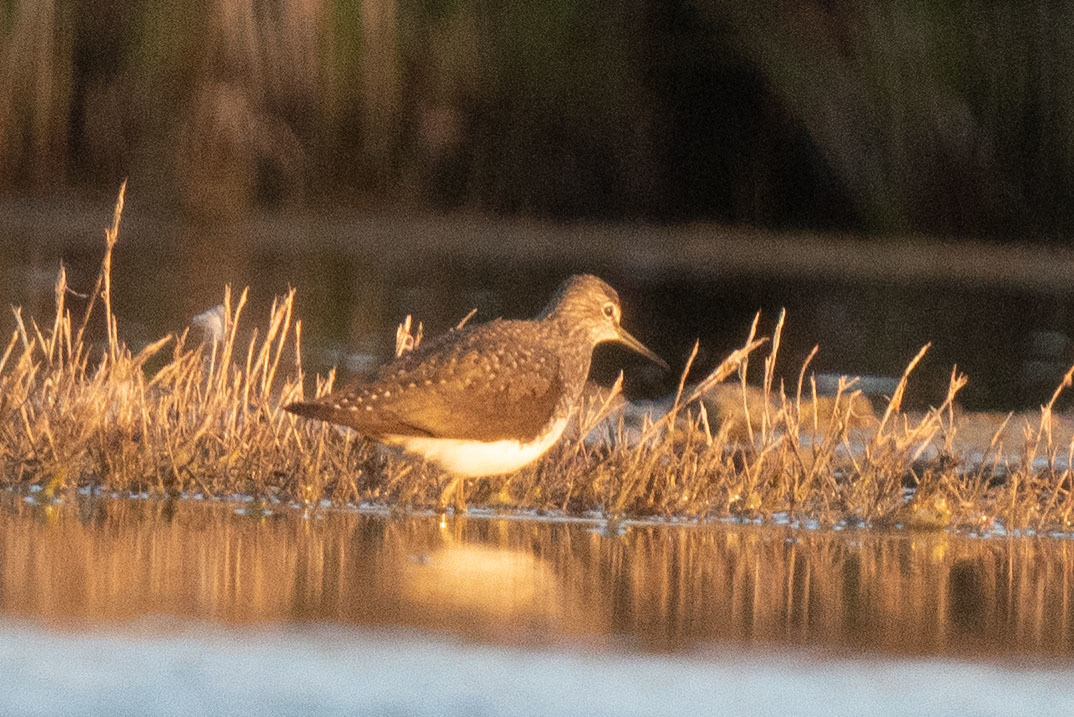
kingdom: Animalia
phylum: Chordata
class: Aves
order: Charadriiformes
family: Scolopacidae
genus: Tringa
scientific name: Tringa ochropus
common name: Green sandpiper
